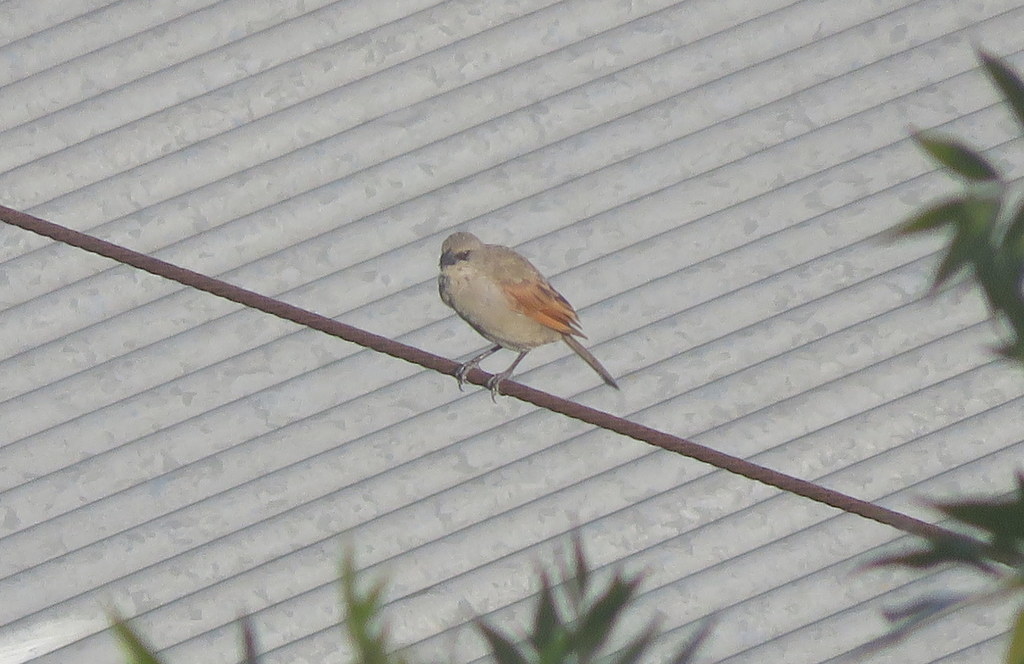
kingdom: Animalia
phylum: Chordata
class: Aves
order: Passeriformes
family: Icteridae
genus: Agelaioides
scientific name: Agelaioides badius
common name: Baywing
